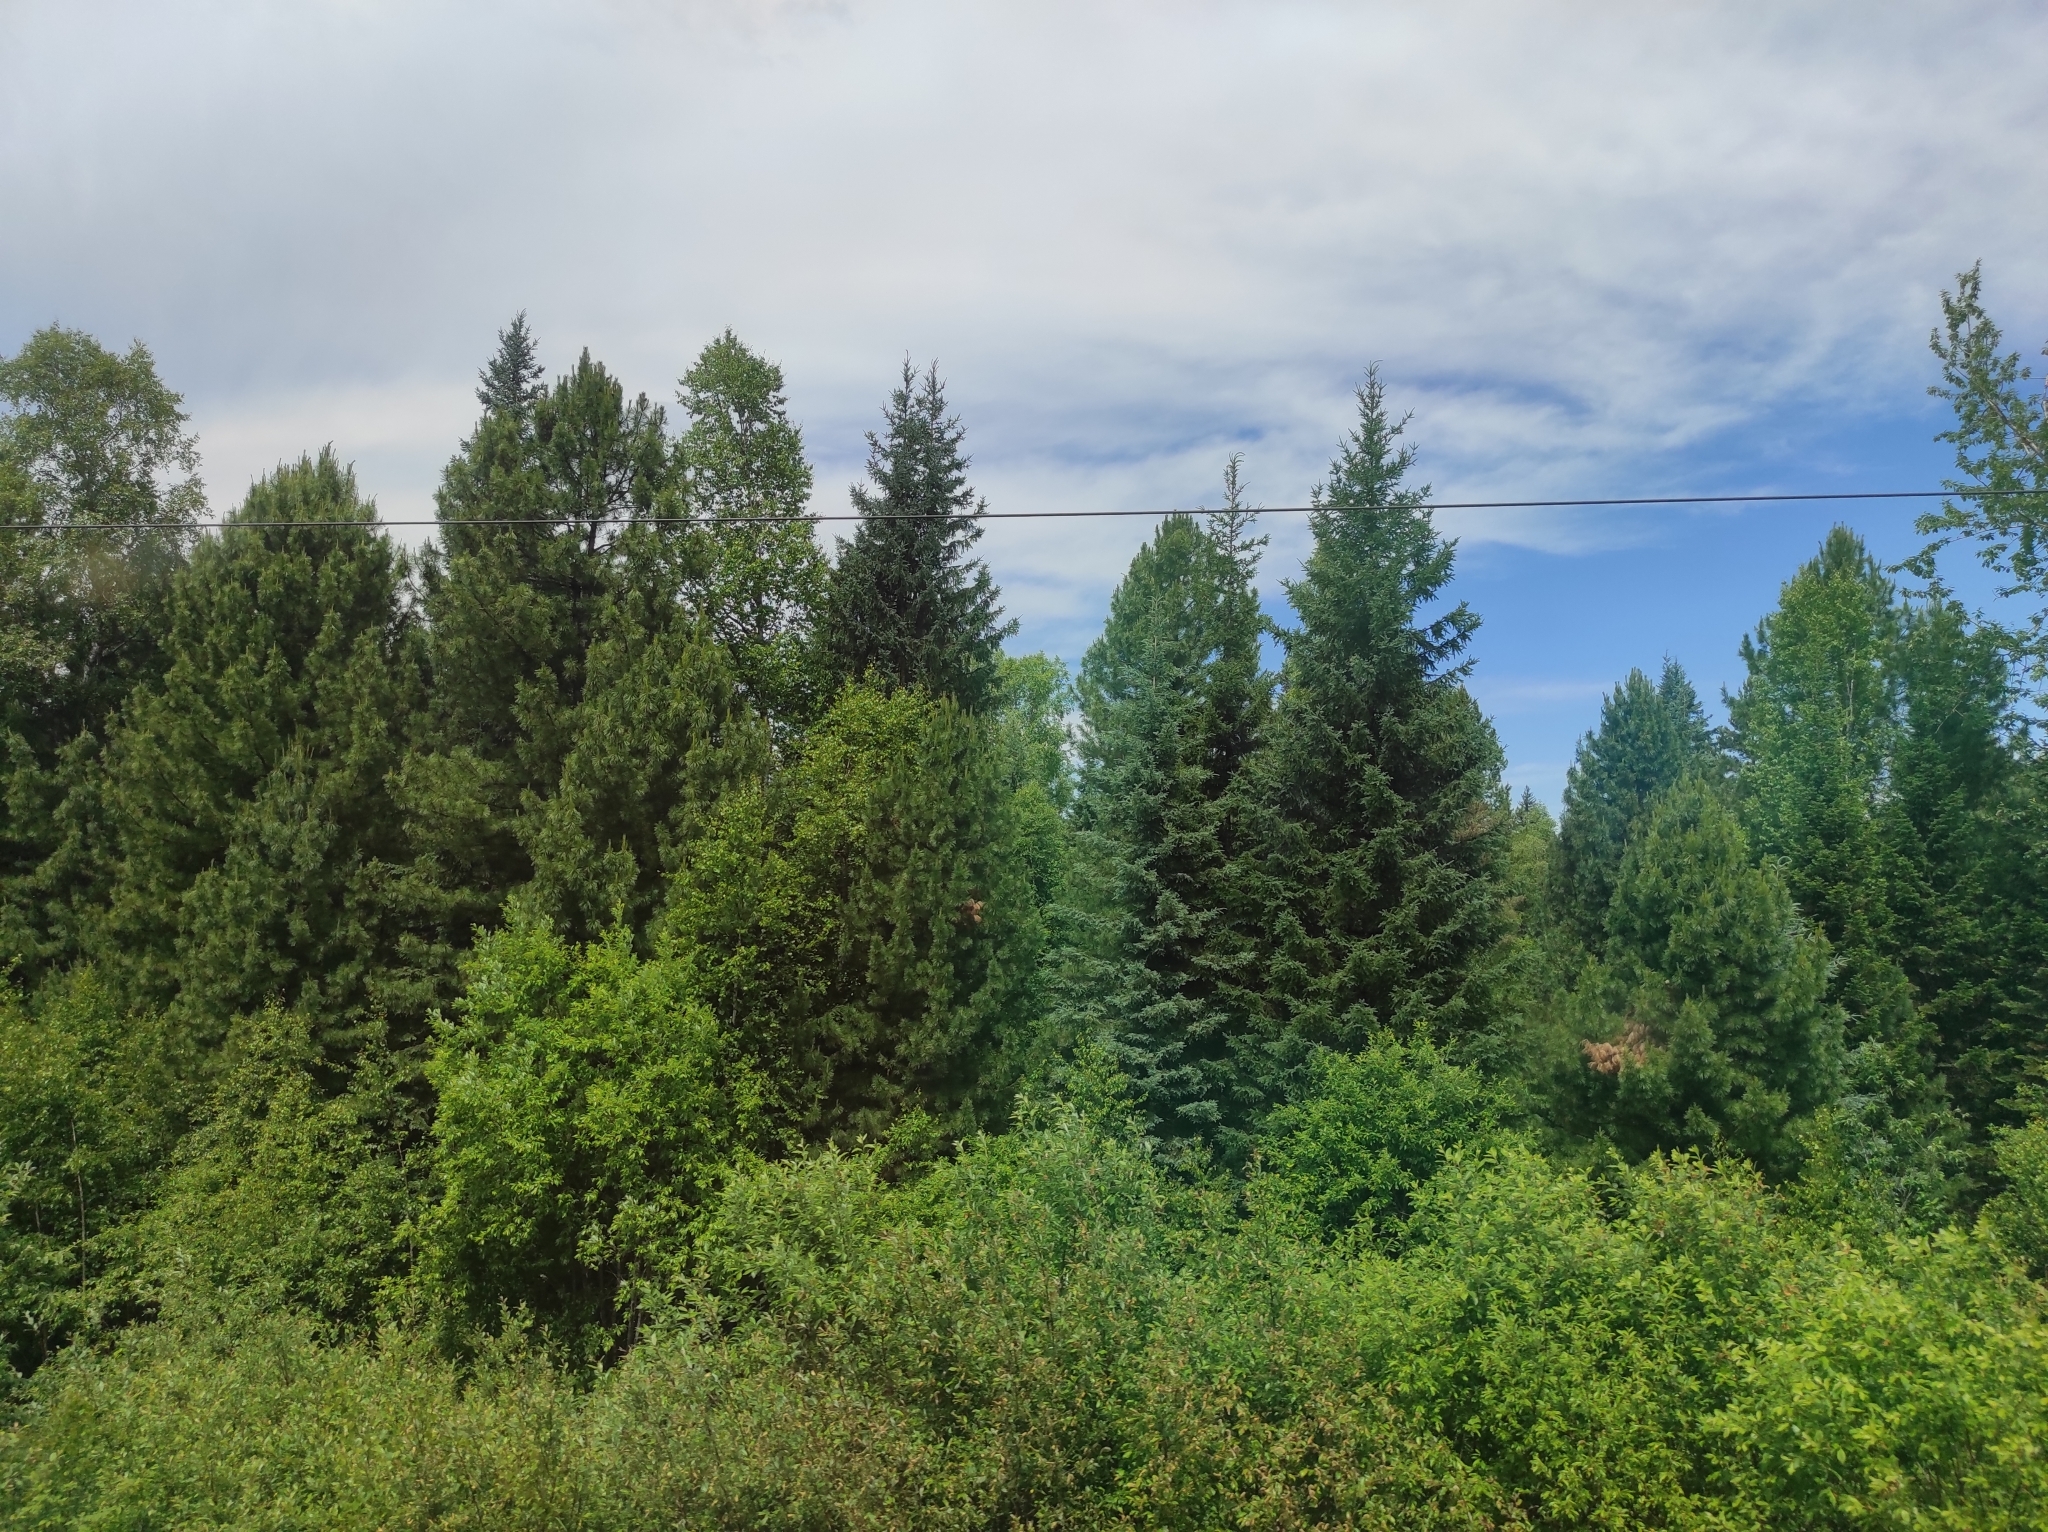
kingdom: Plantae
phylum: Tracheophyta
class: Pinopsida
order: Pinales
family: Pinaceae
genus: Picea
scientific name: Picea obovata
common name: Siberian spruce
